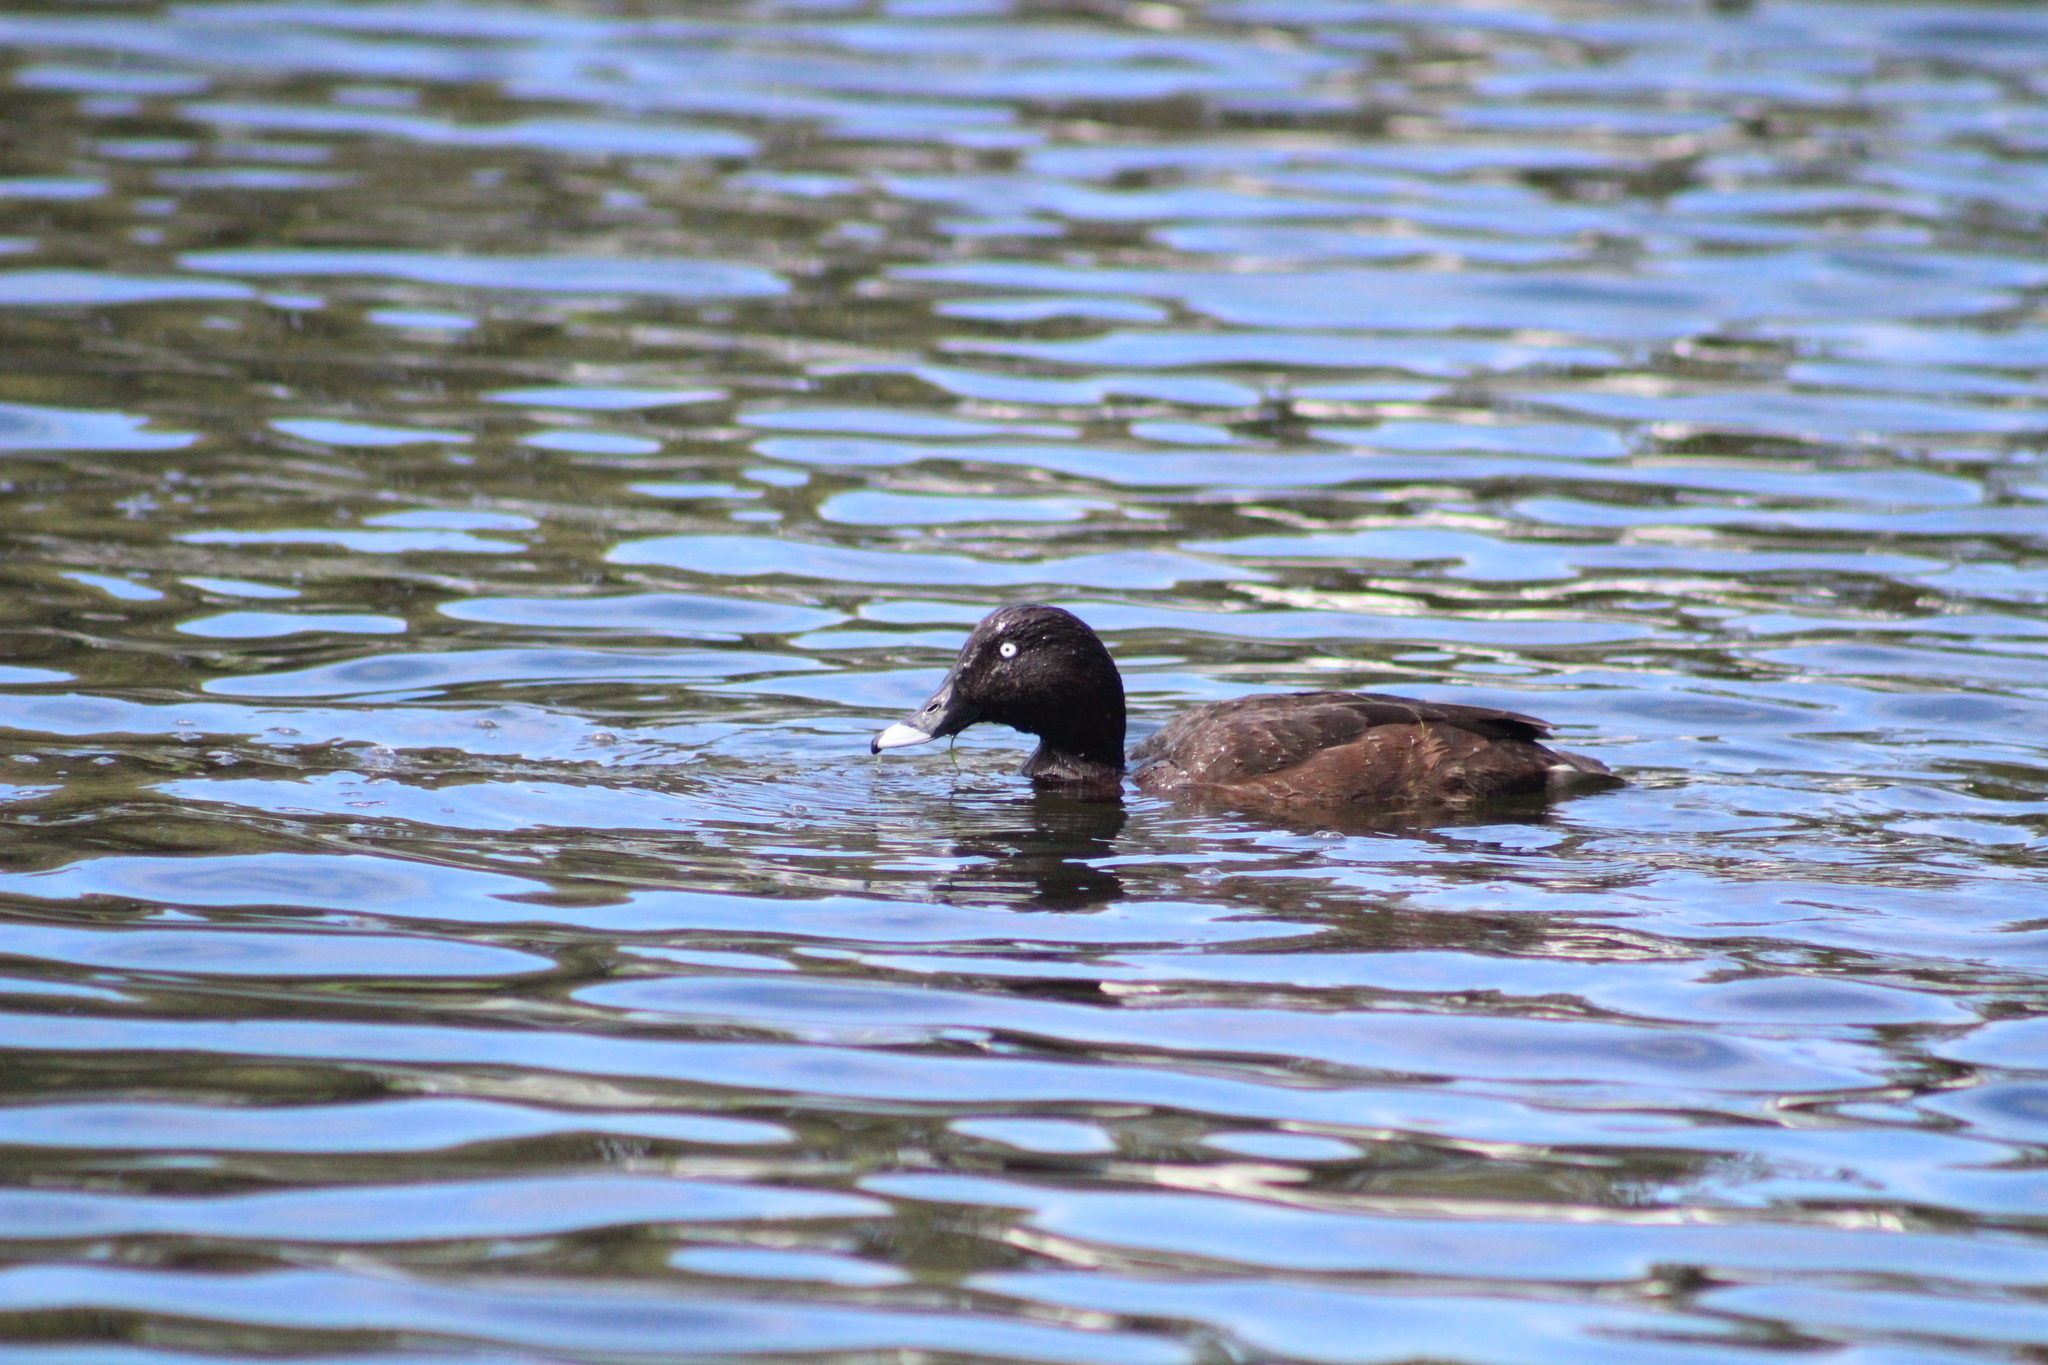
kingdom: Animalia
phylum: Chordata
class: Aves
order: Anseriformes
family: Anatidae
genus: Aythya
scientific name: Aythya australis
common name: Hardhead
